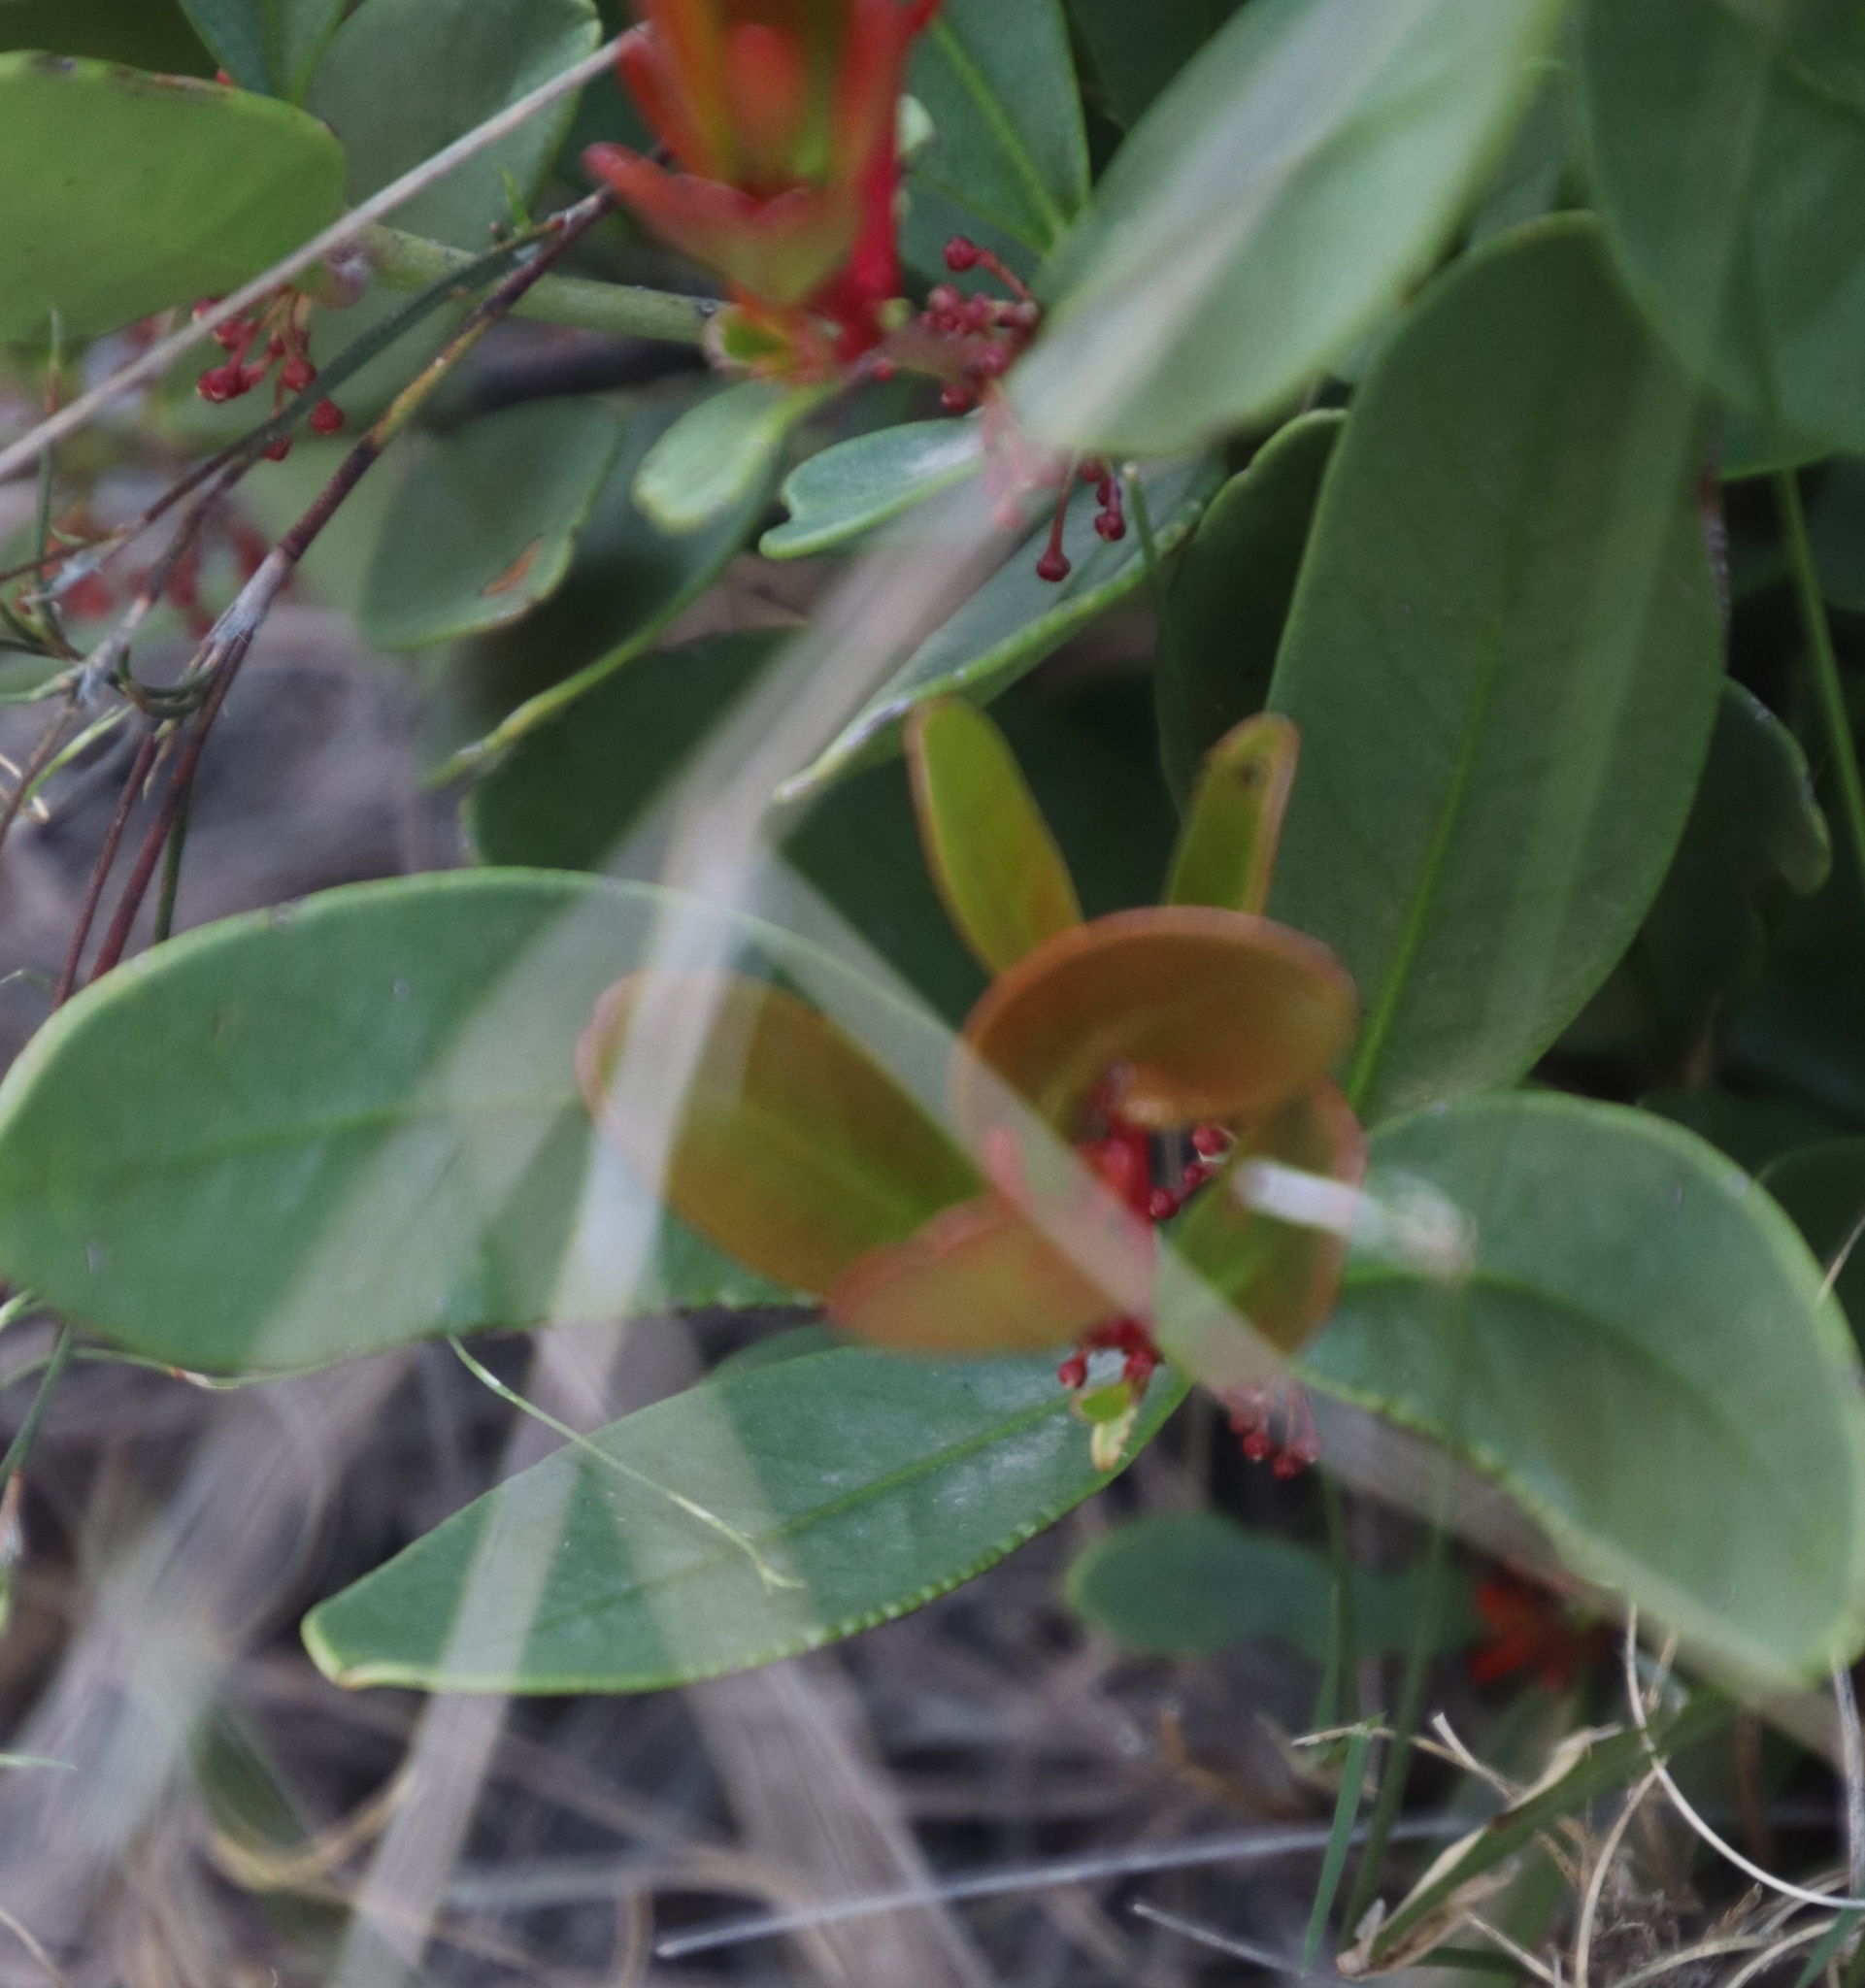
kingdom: Plantae
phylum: Tracheophyta
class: Magnoliopsida
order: Celastrales
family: Celastraceae
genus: Elaeodendron
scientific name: Elaeodendron schinoides
